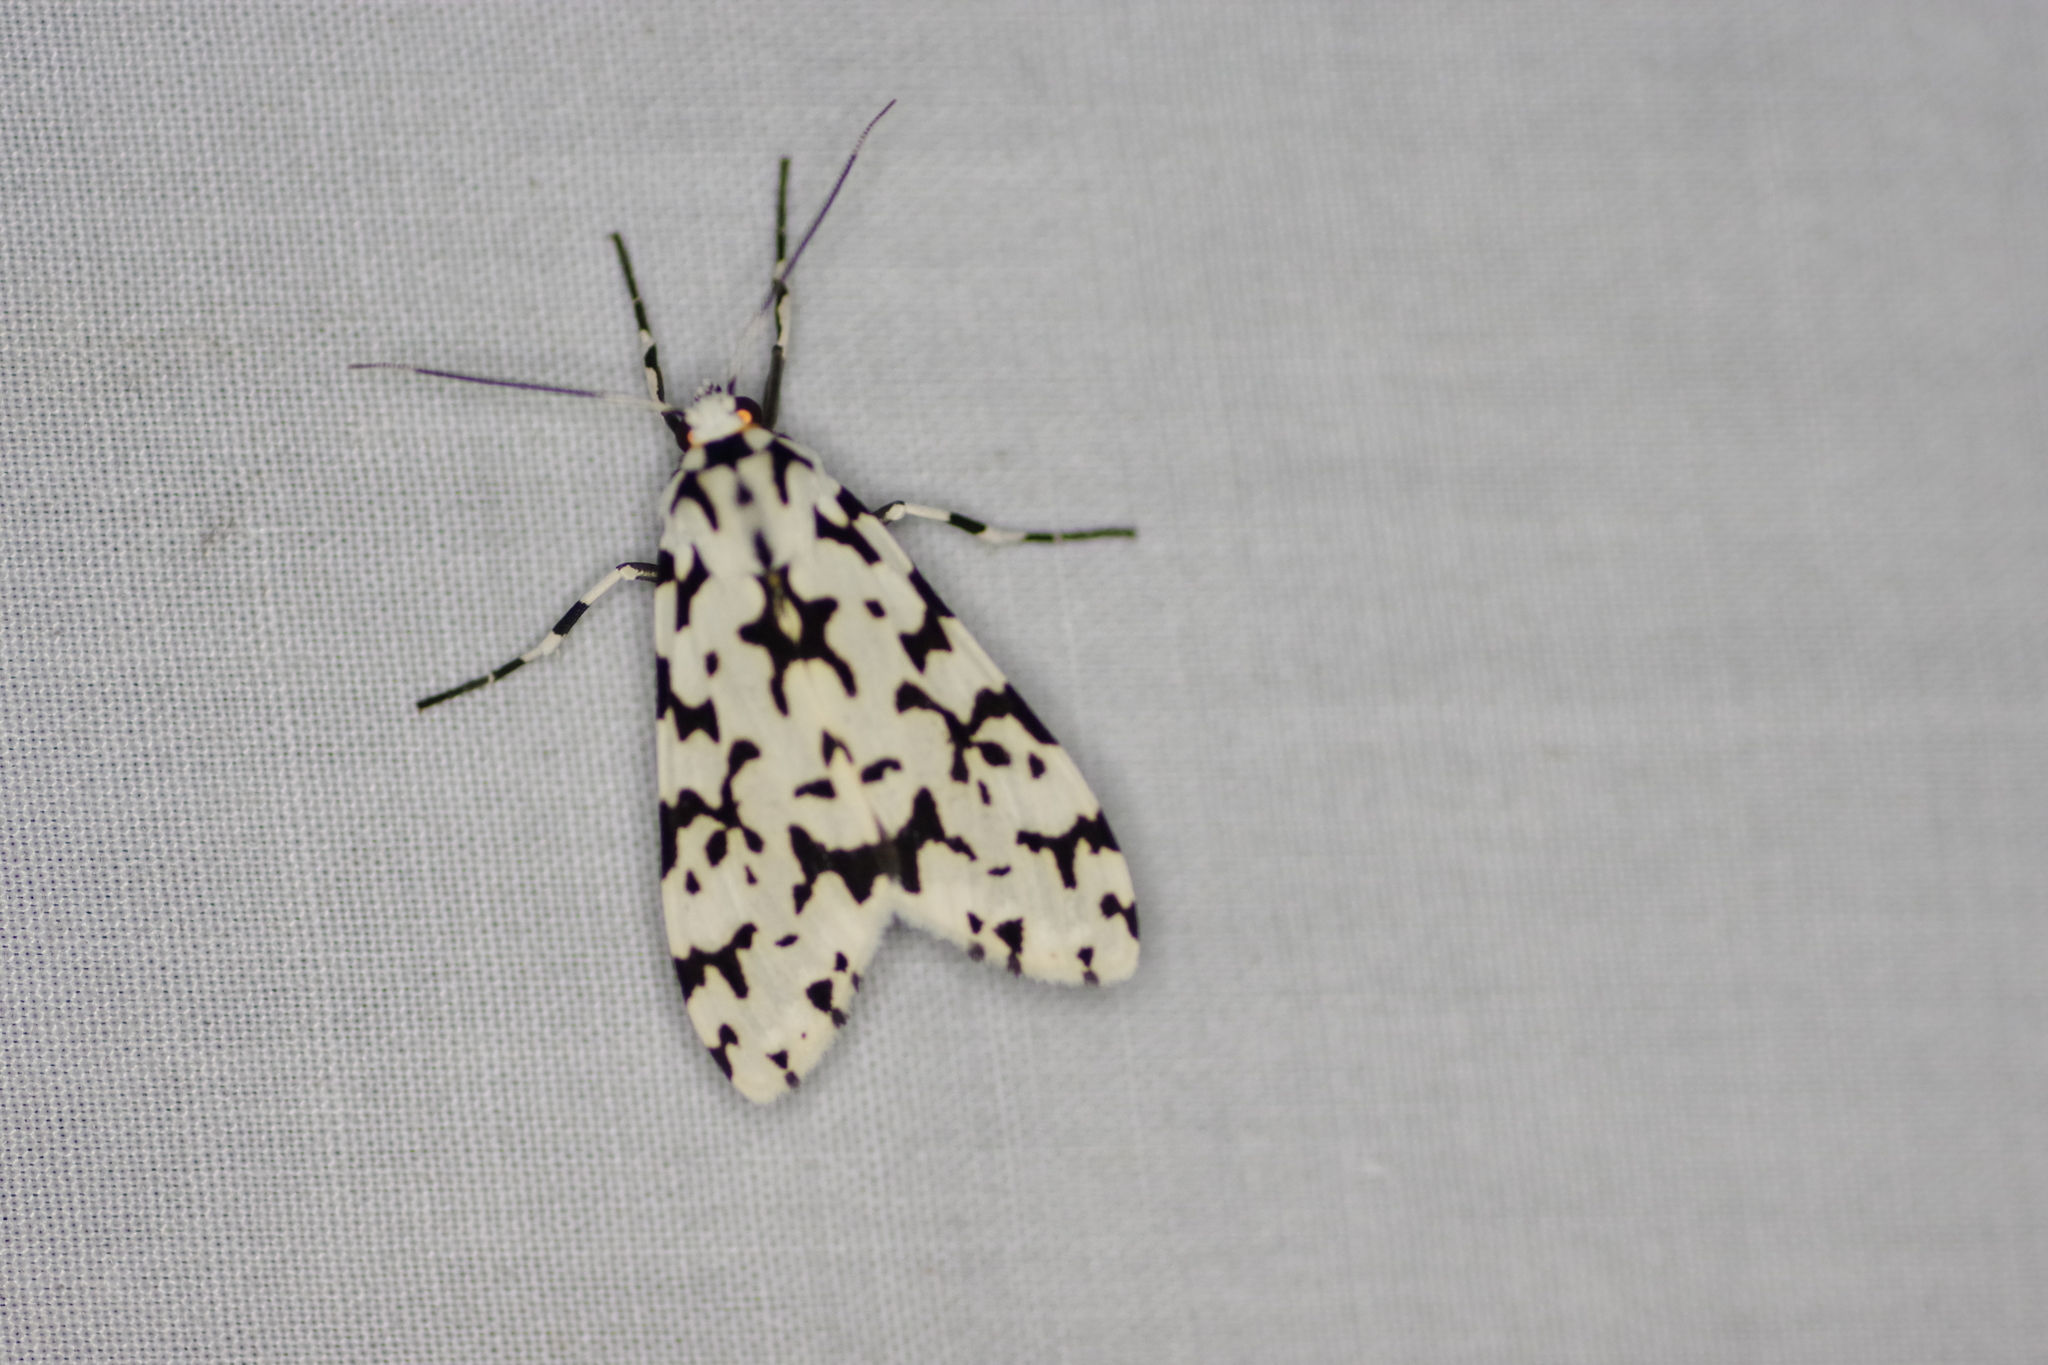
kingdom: Animalia
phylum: Arthropoda
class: Insecta
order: Lepidoptera
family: Erebidae
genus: Eucereon
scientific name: Eucereon tigrata
